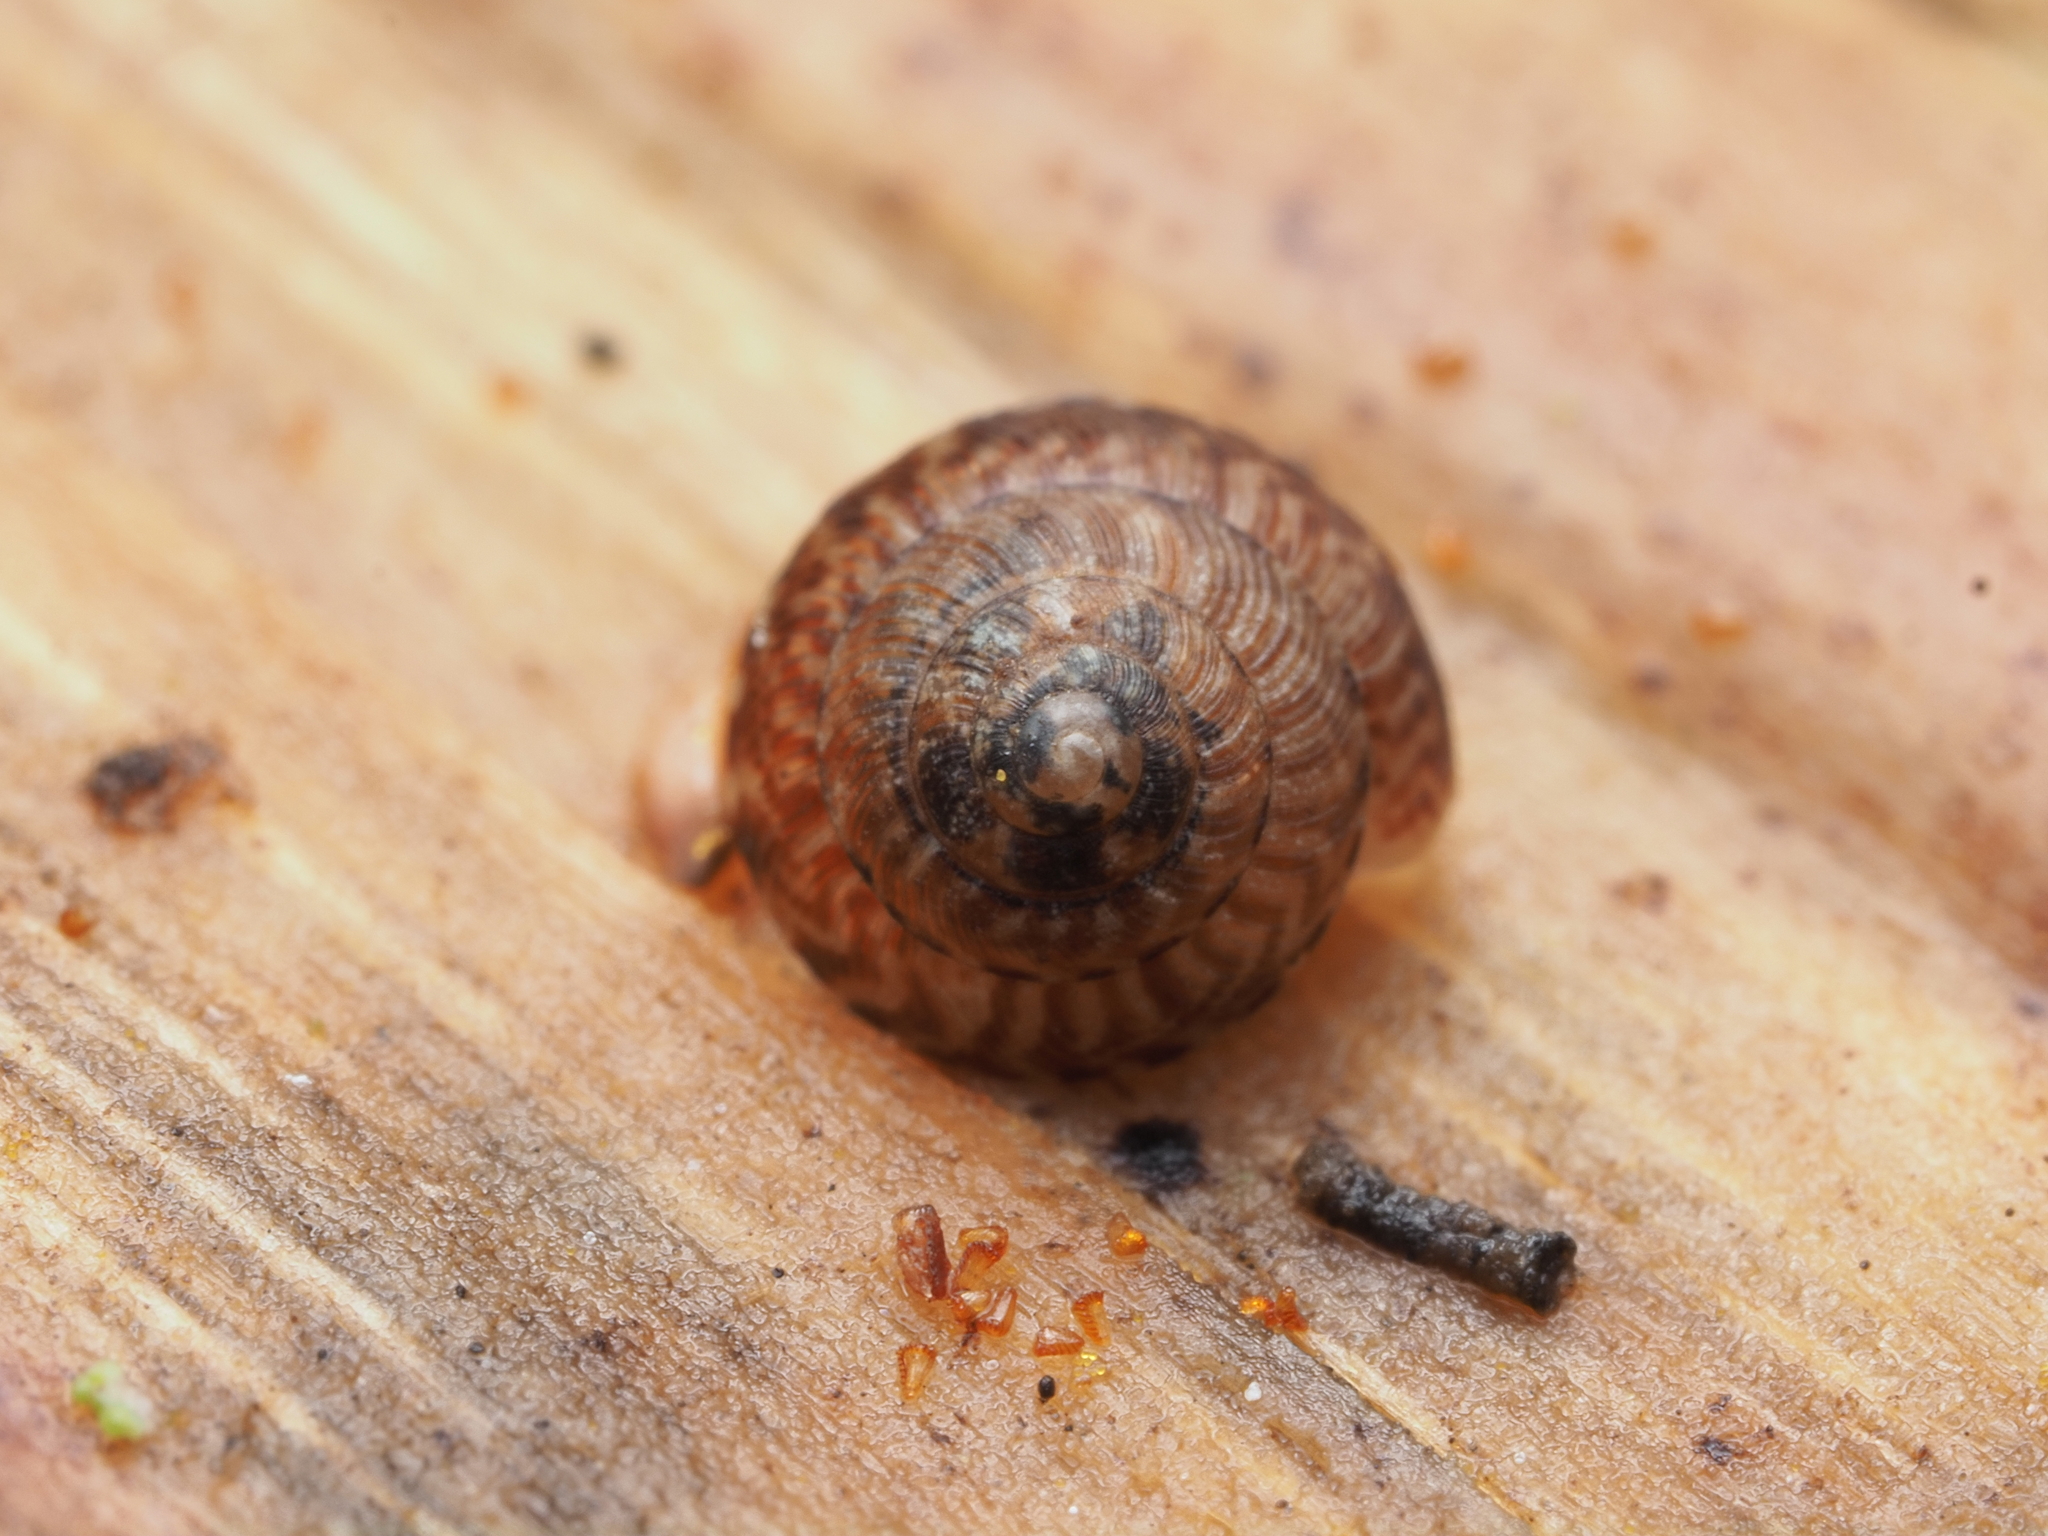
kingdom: Animalia
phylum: Mollusca
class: Gastropoda
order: Stylommatophora
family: Punctidae
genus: Laoma
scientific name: Laoma ordishi
